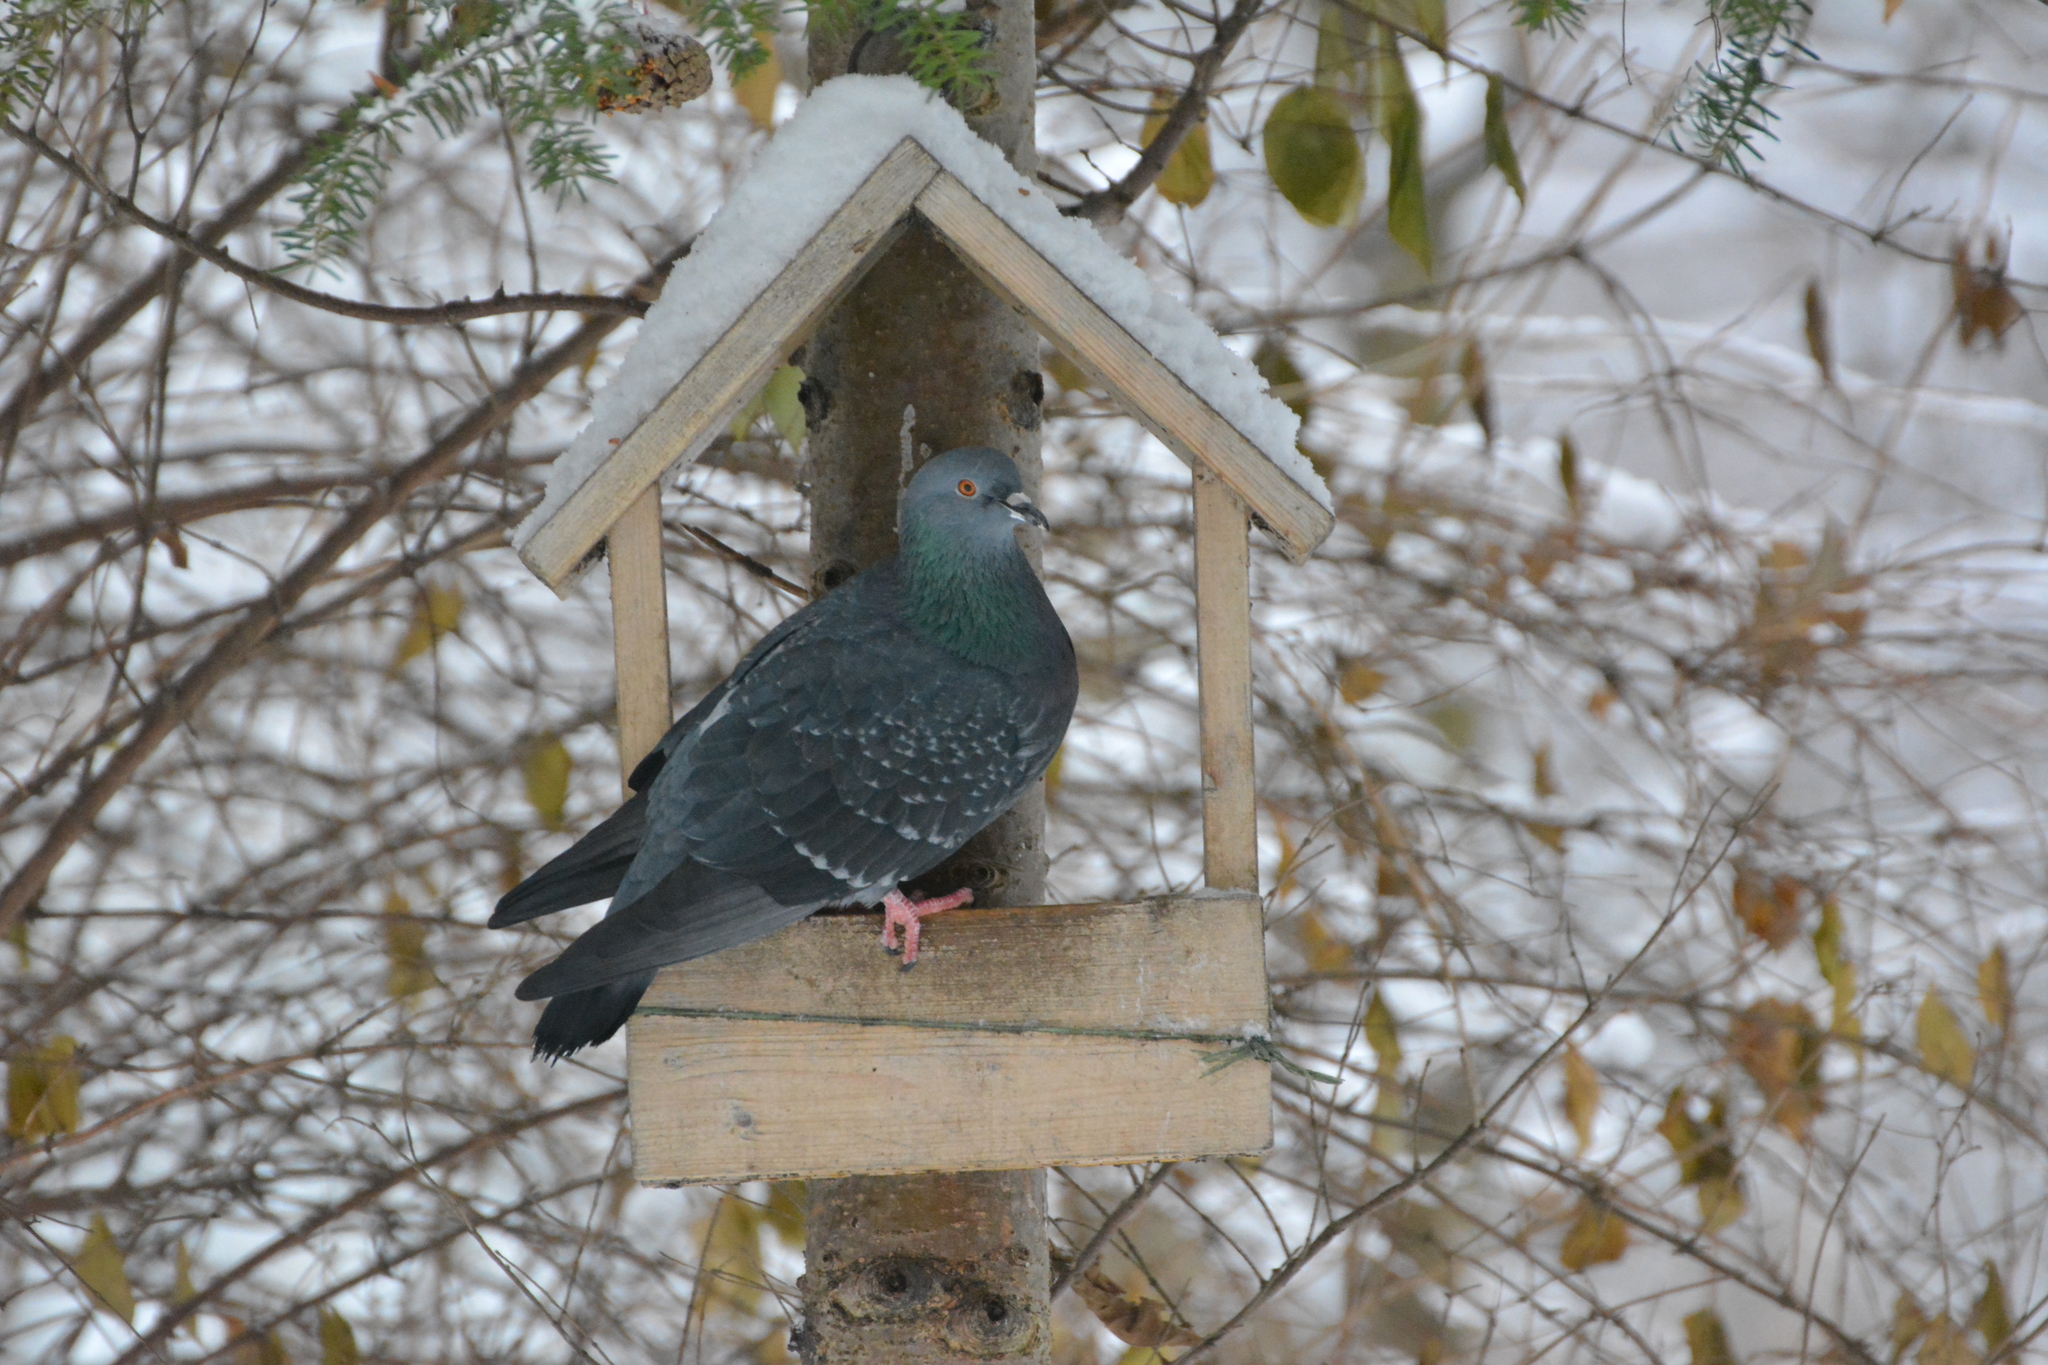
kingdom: Animalia
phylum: Chordata
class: Aves
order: Columbiformes
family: Columbidae
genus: Columba
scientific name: Columba livia
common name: Rock pigeon
